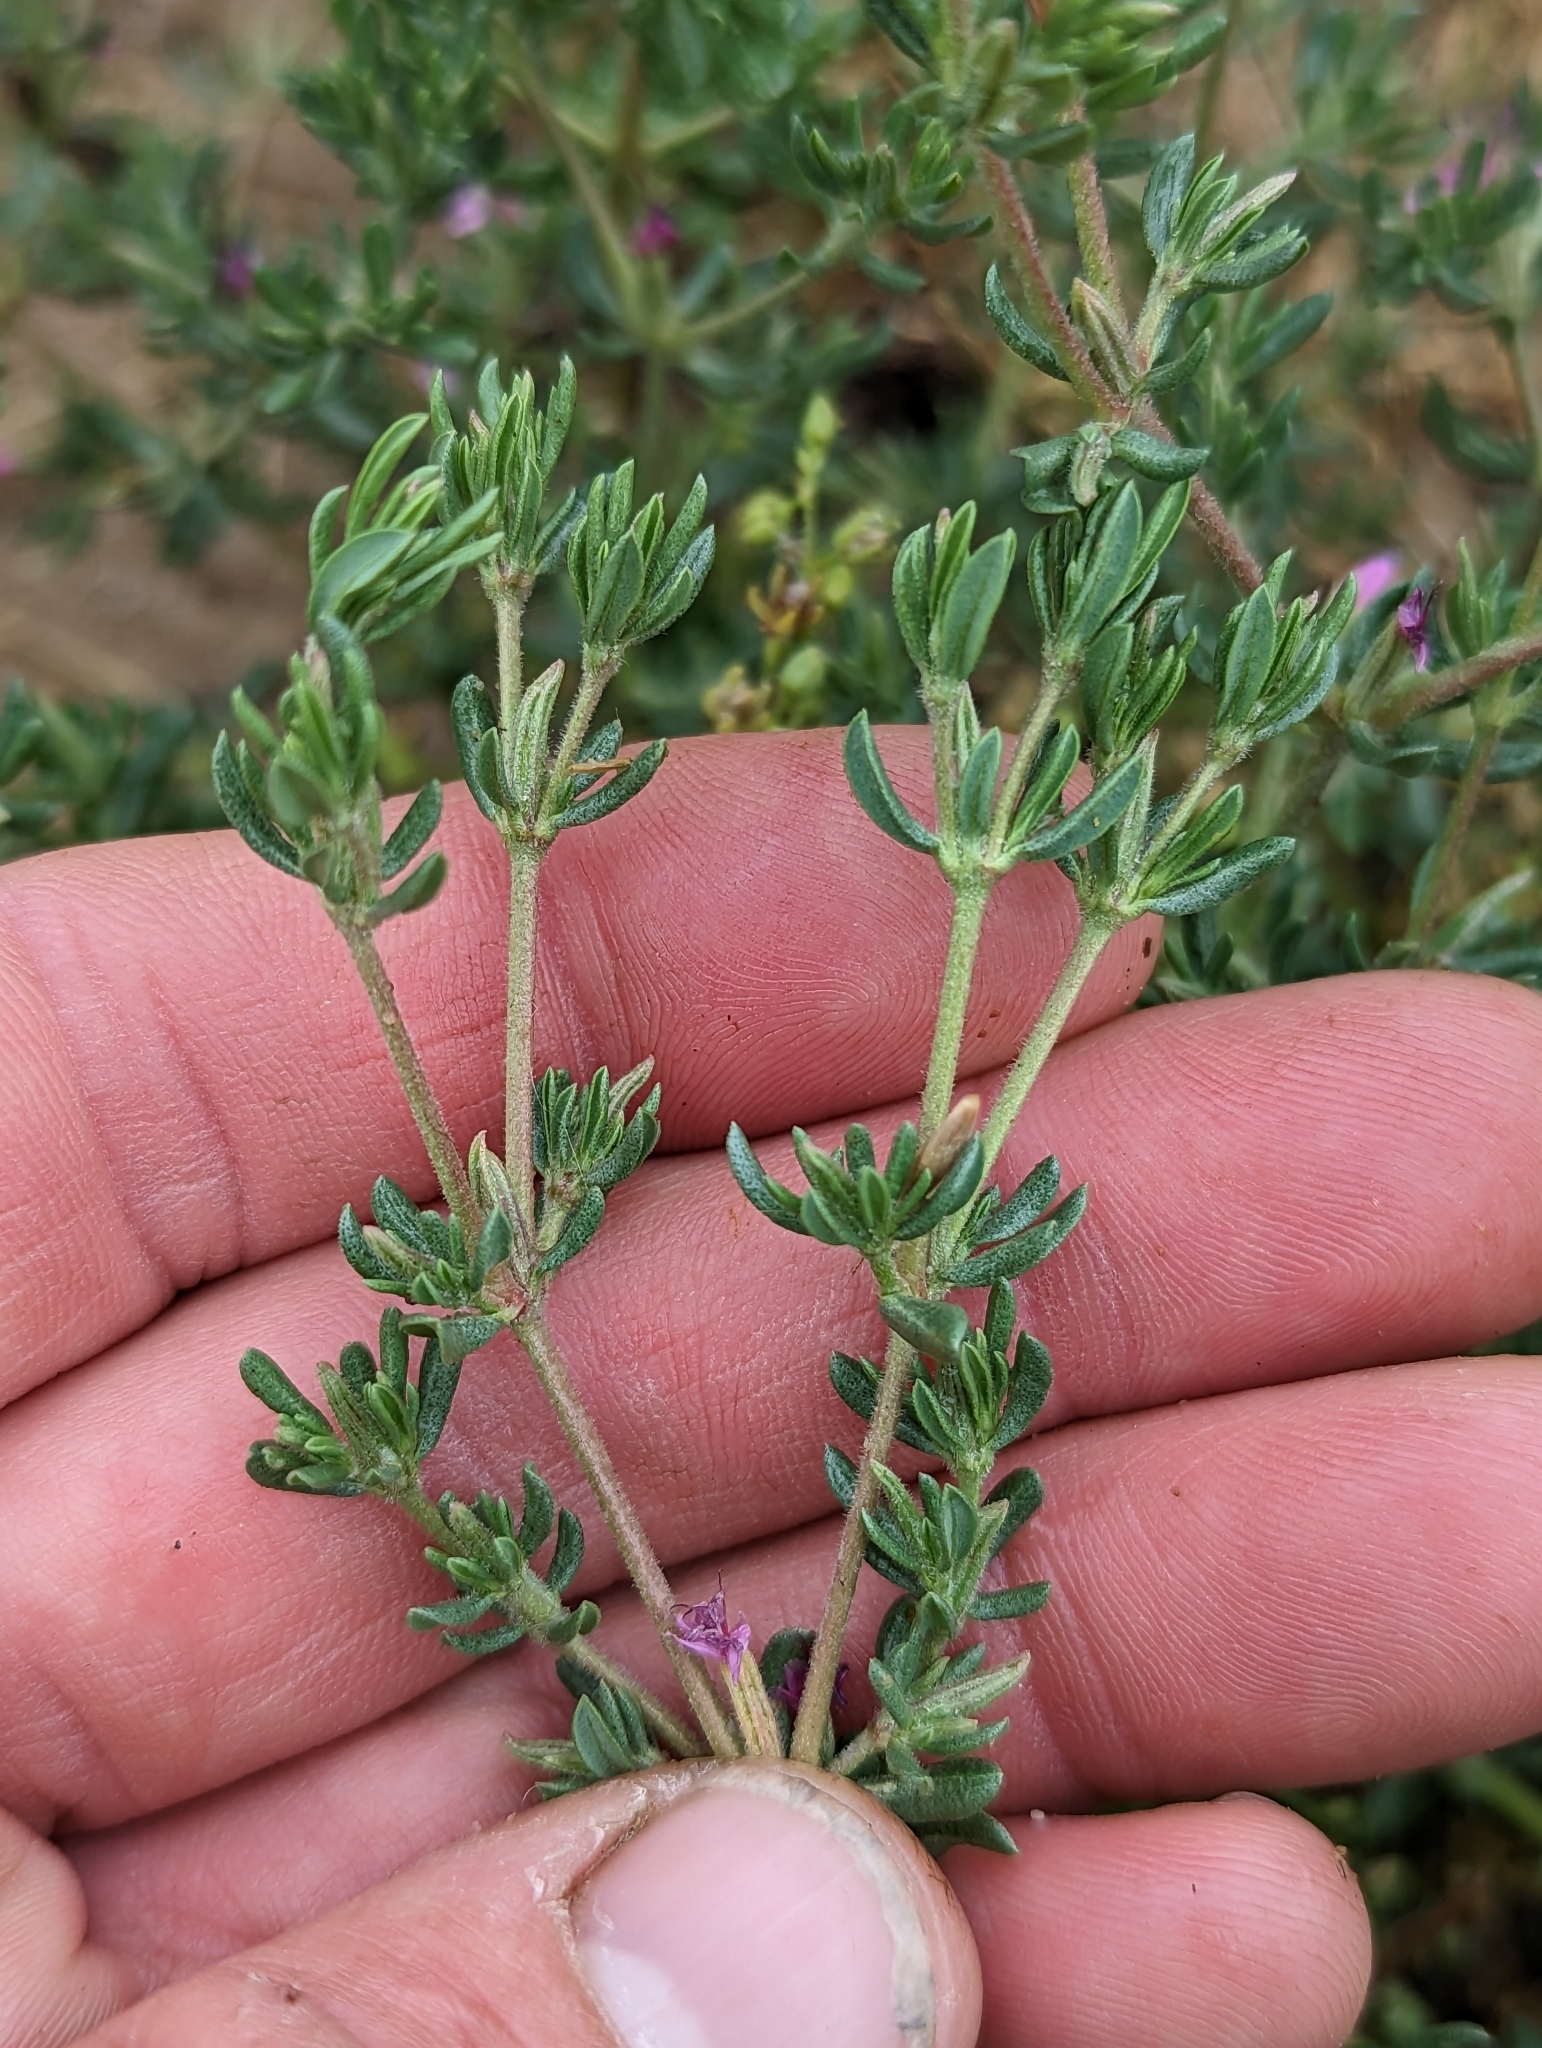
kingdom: Plantae
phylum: Tracheophyta
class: Magnoliopsida
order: Caryophyllales
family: Frankeniaceae
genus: Frankenia
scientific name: Frankenia salina
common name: Alkali seaheath
